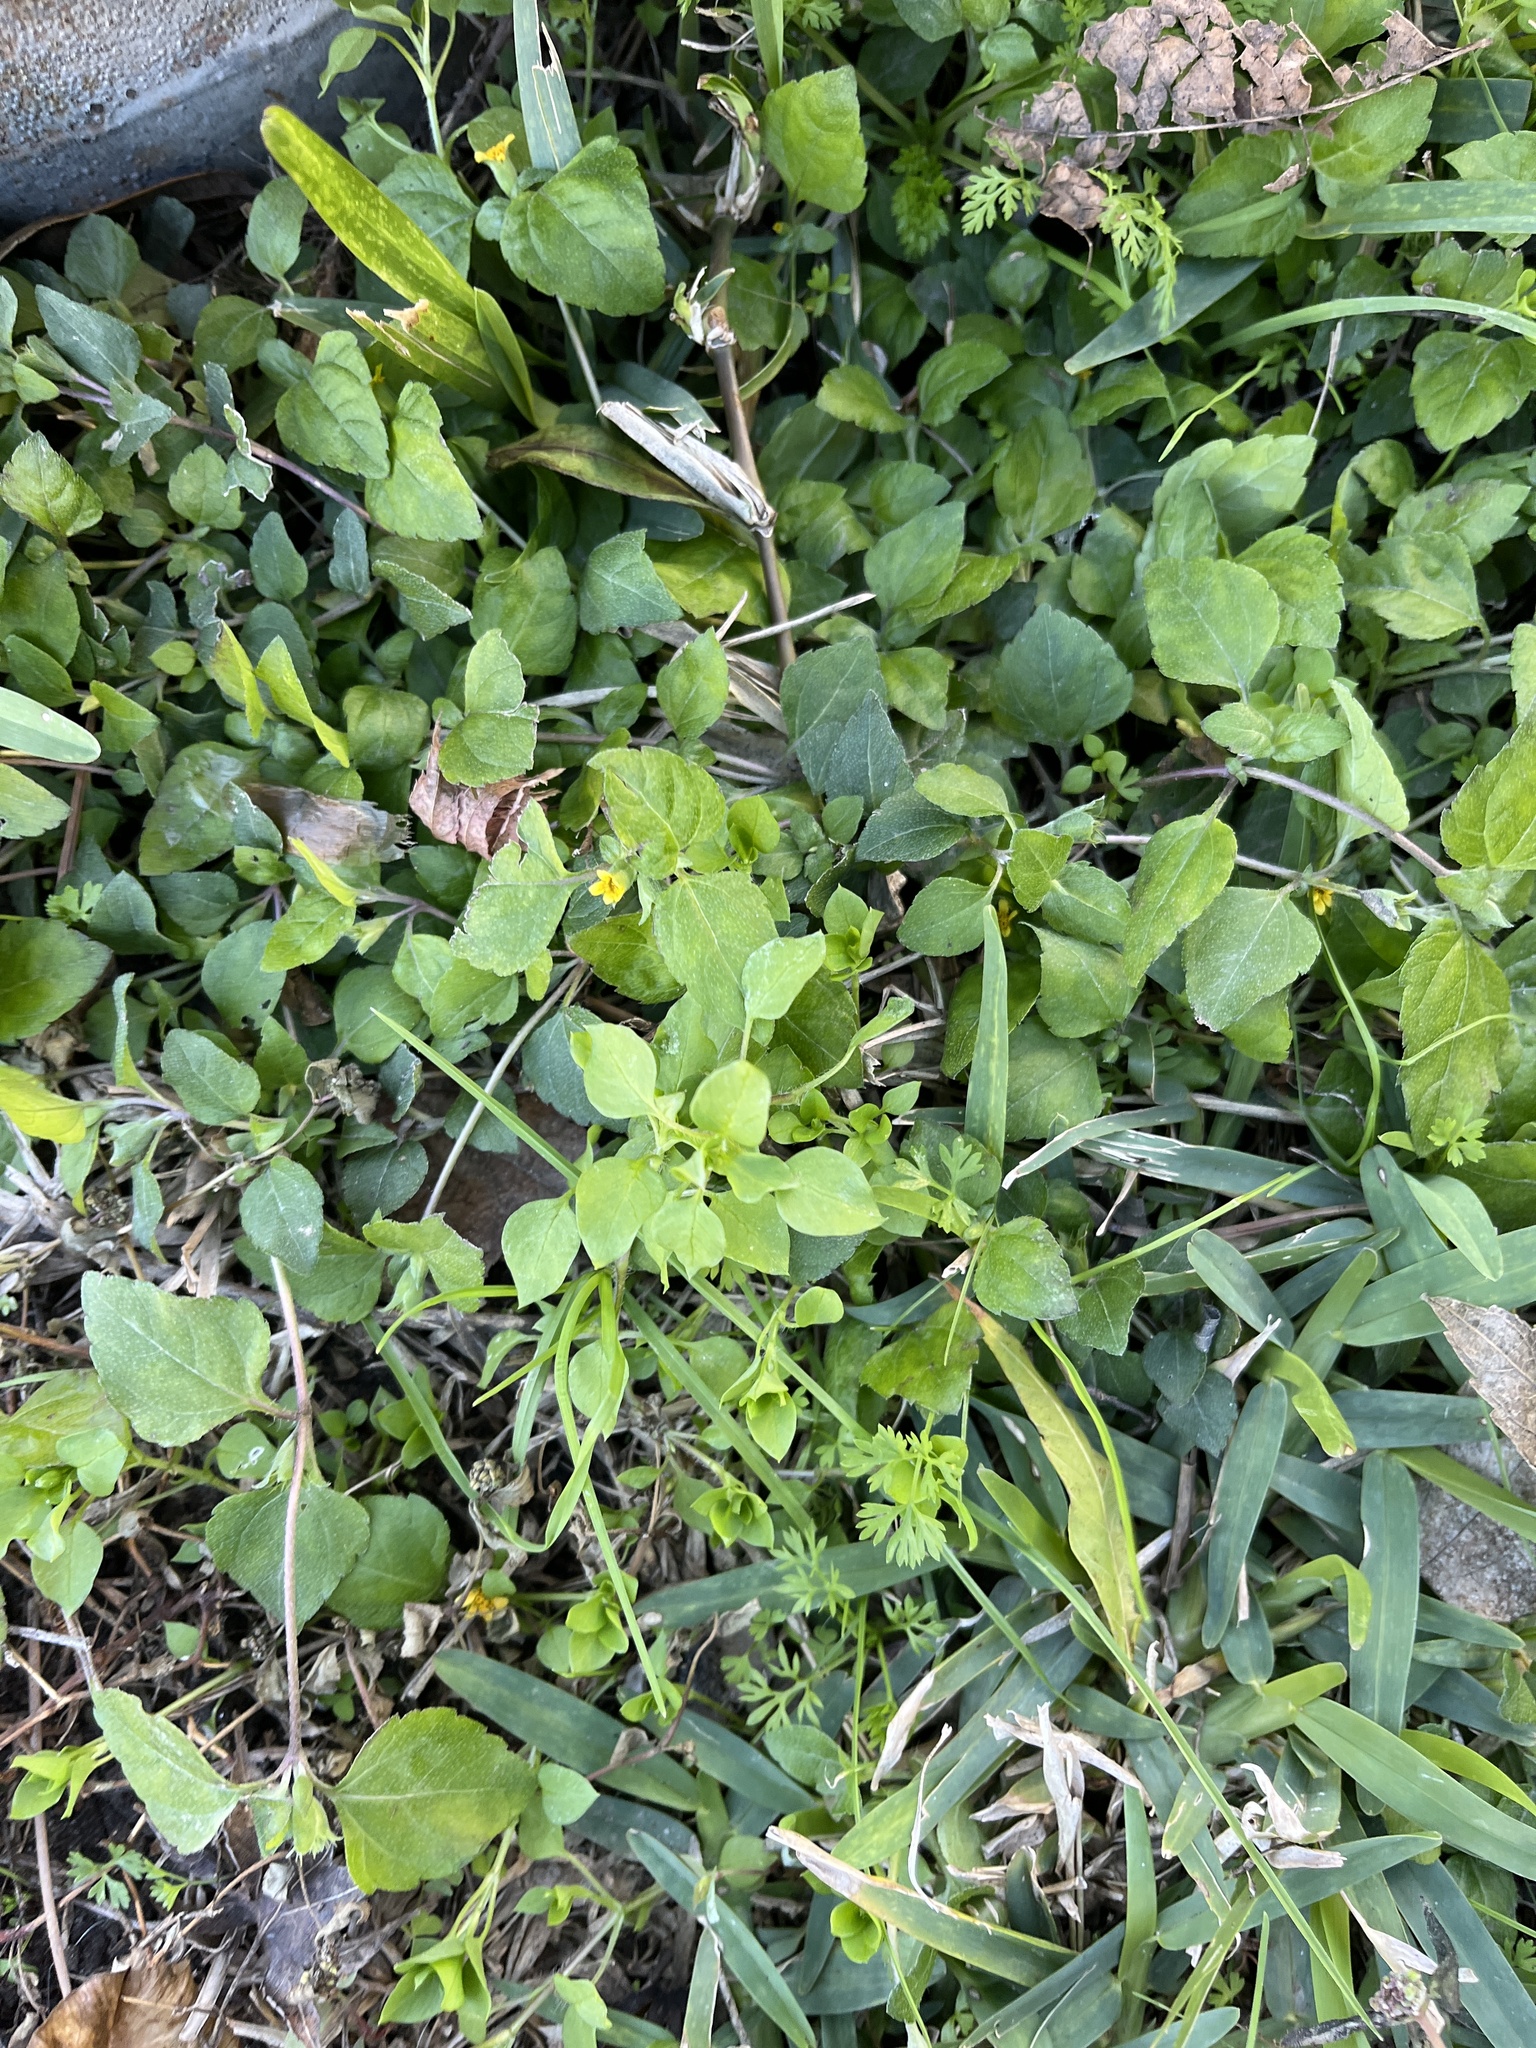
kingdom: Plantae
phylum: Tracheophyta
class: Magnoliopsida
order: Asterales
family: Asteraceae
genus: Calyptocarpus
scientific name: Calyptocarpus vialis
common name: Straggler daisy
